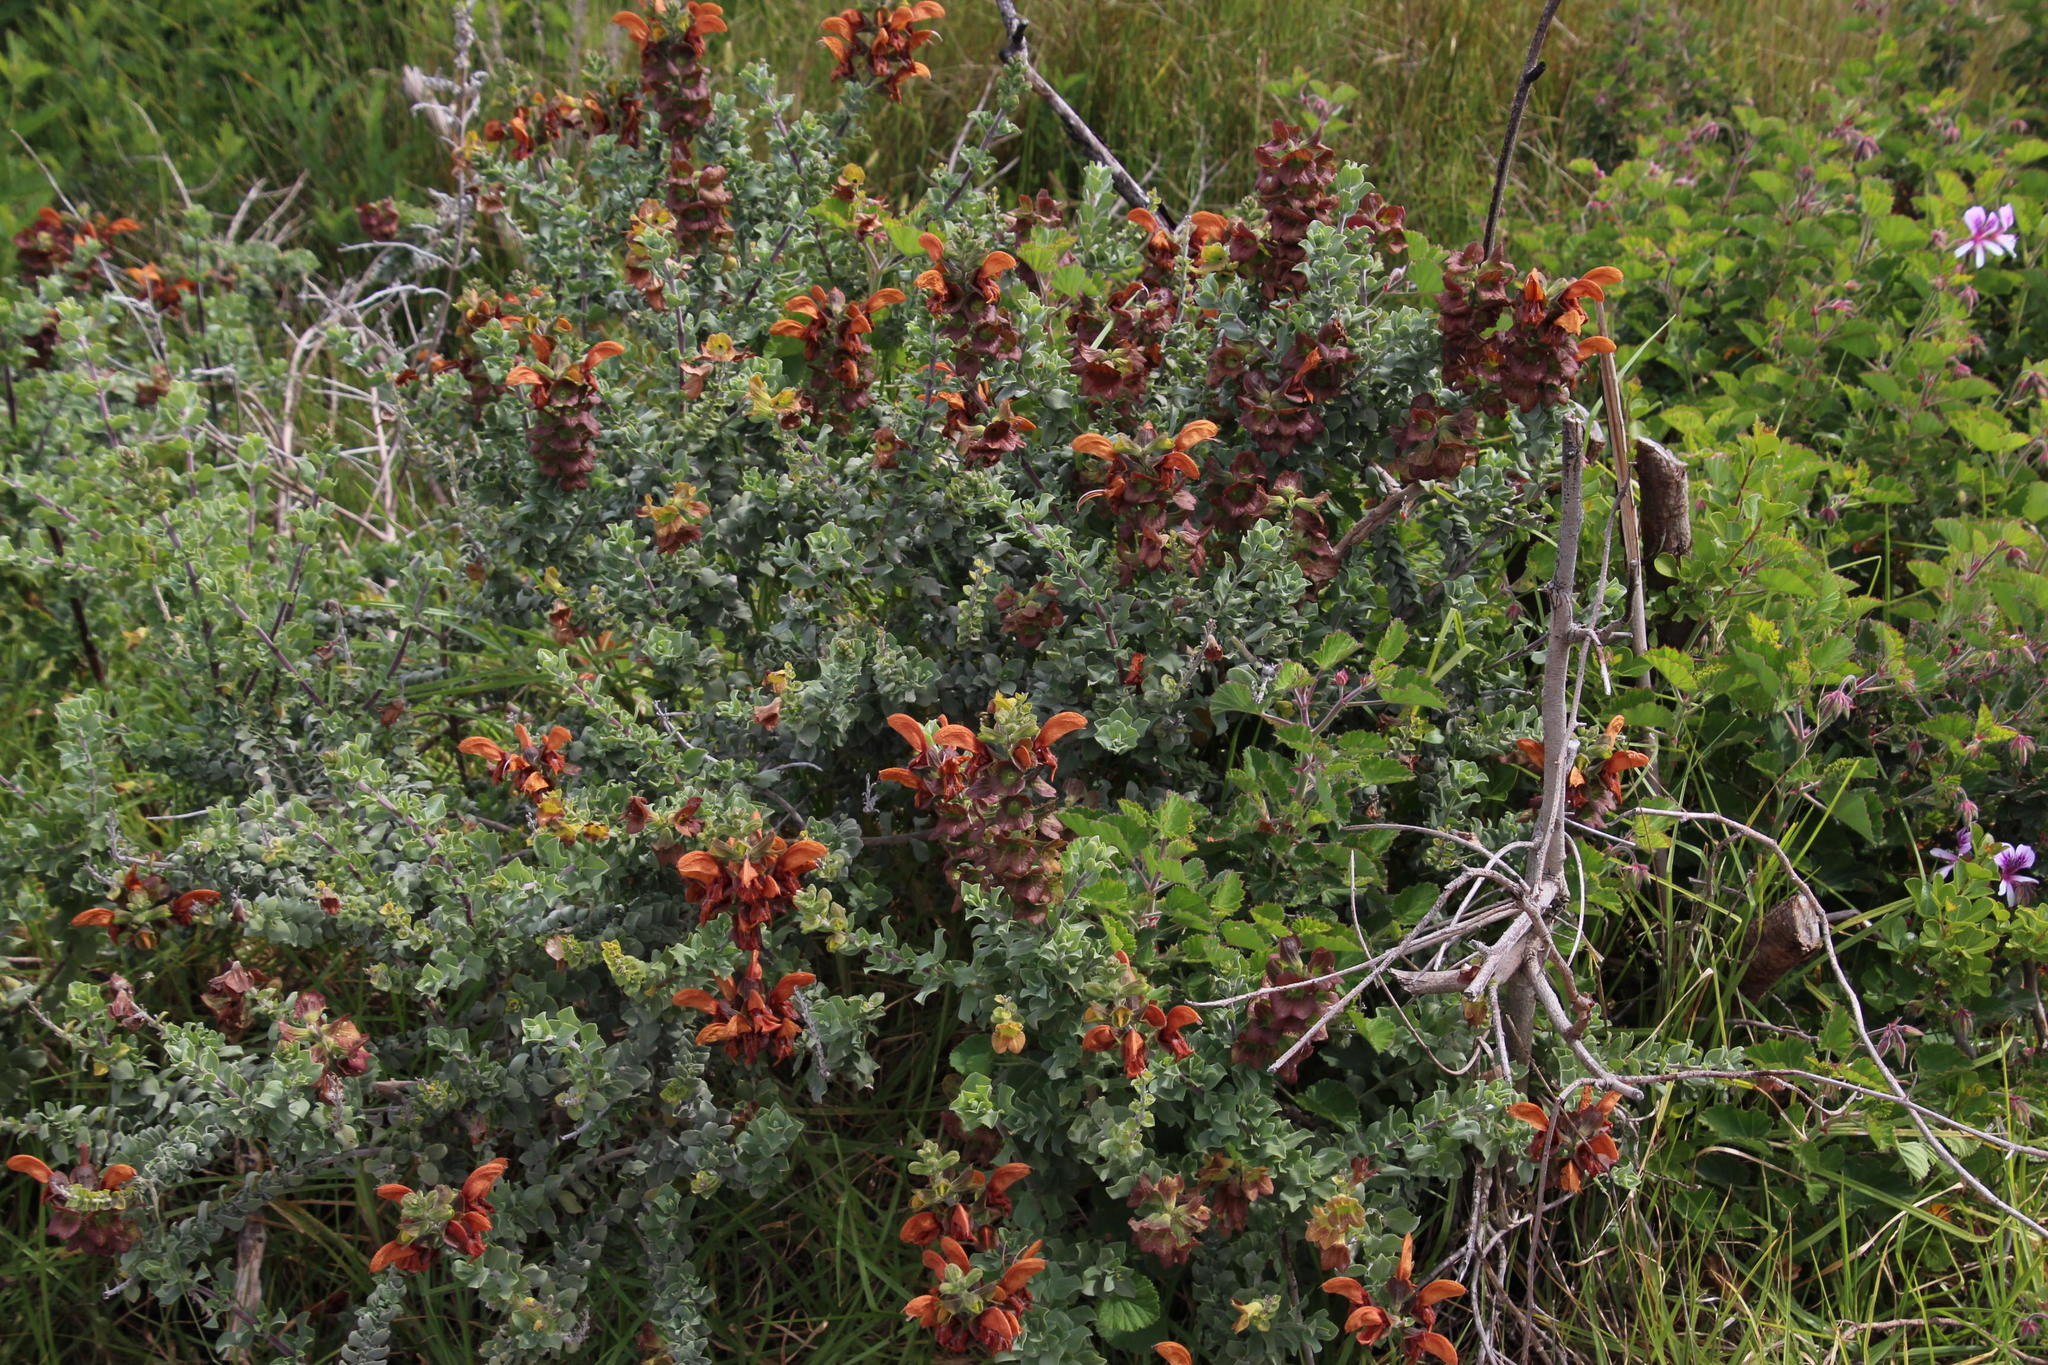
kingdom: Plantae
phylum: Tracheophyta
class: Magnoliopsida
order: Lamiales
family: Lamiaceae
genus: Salvia
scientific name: Salvia aurea
